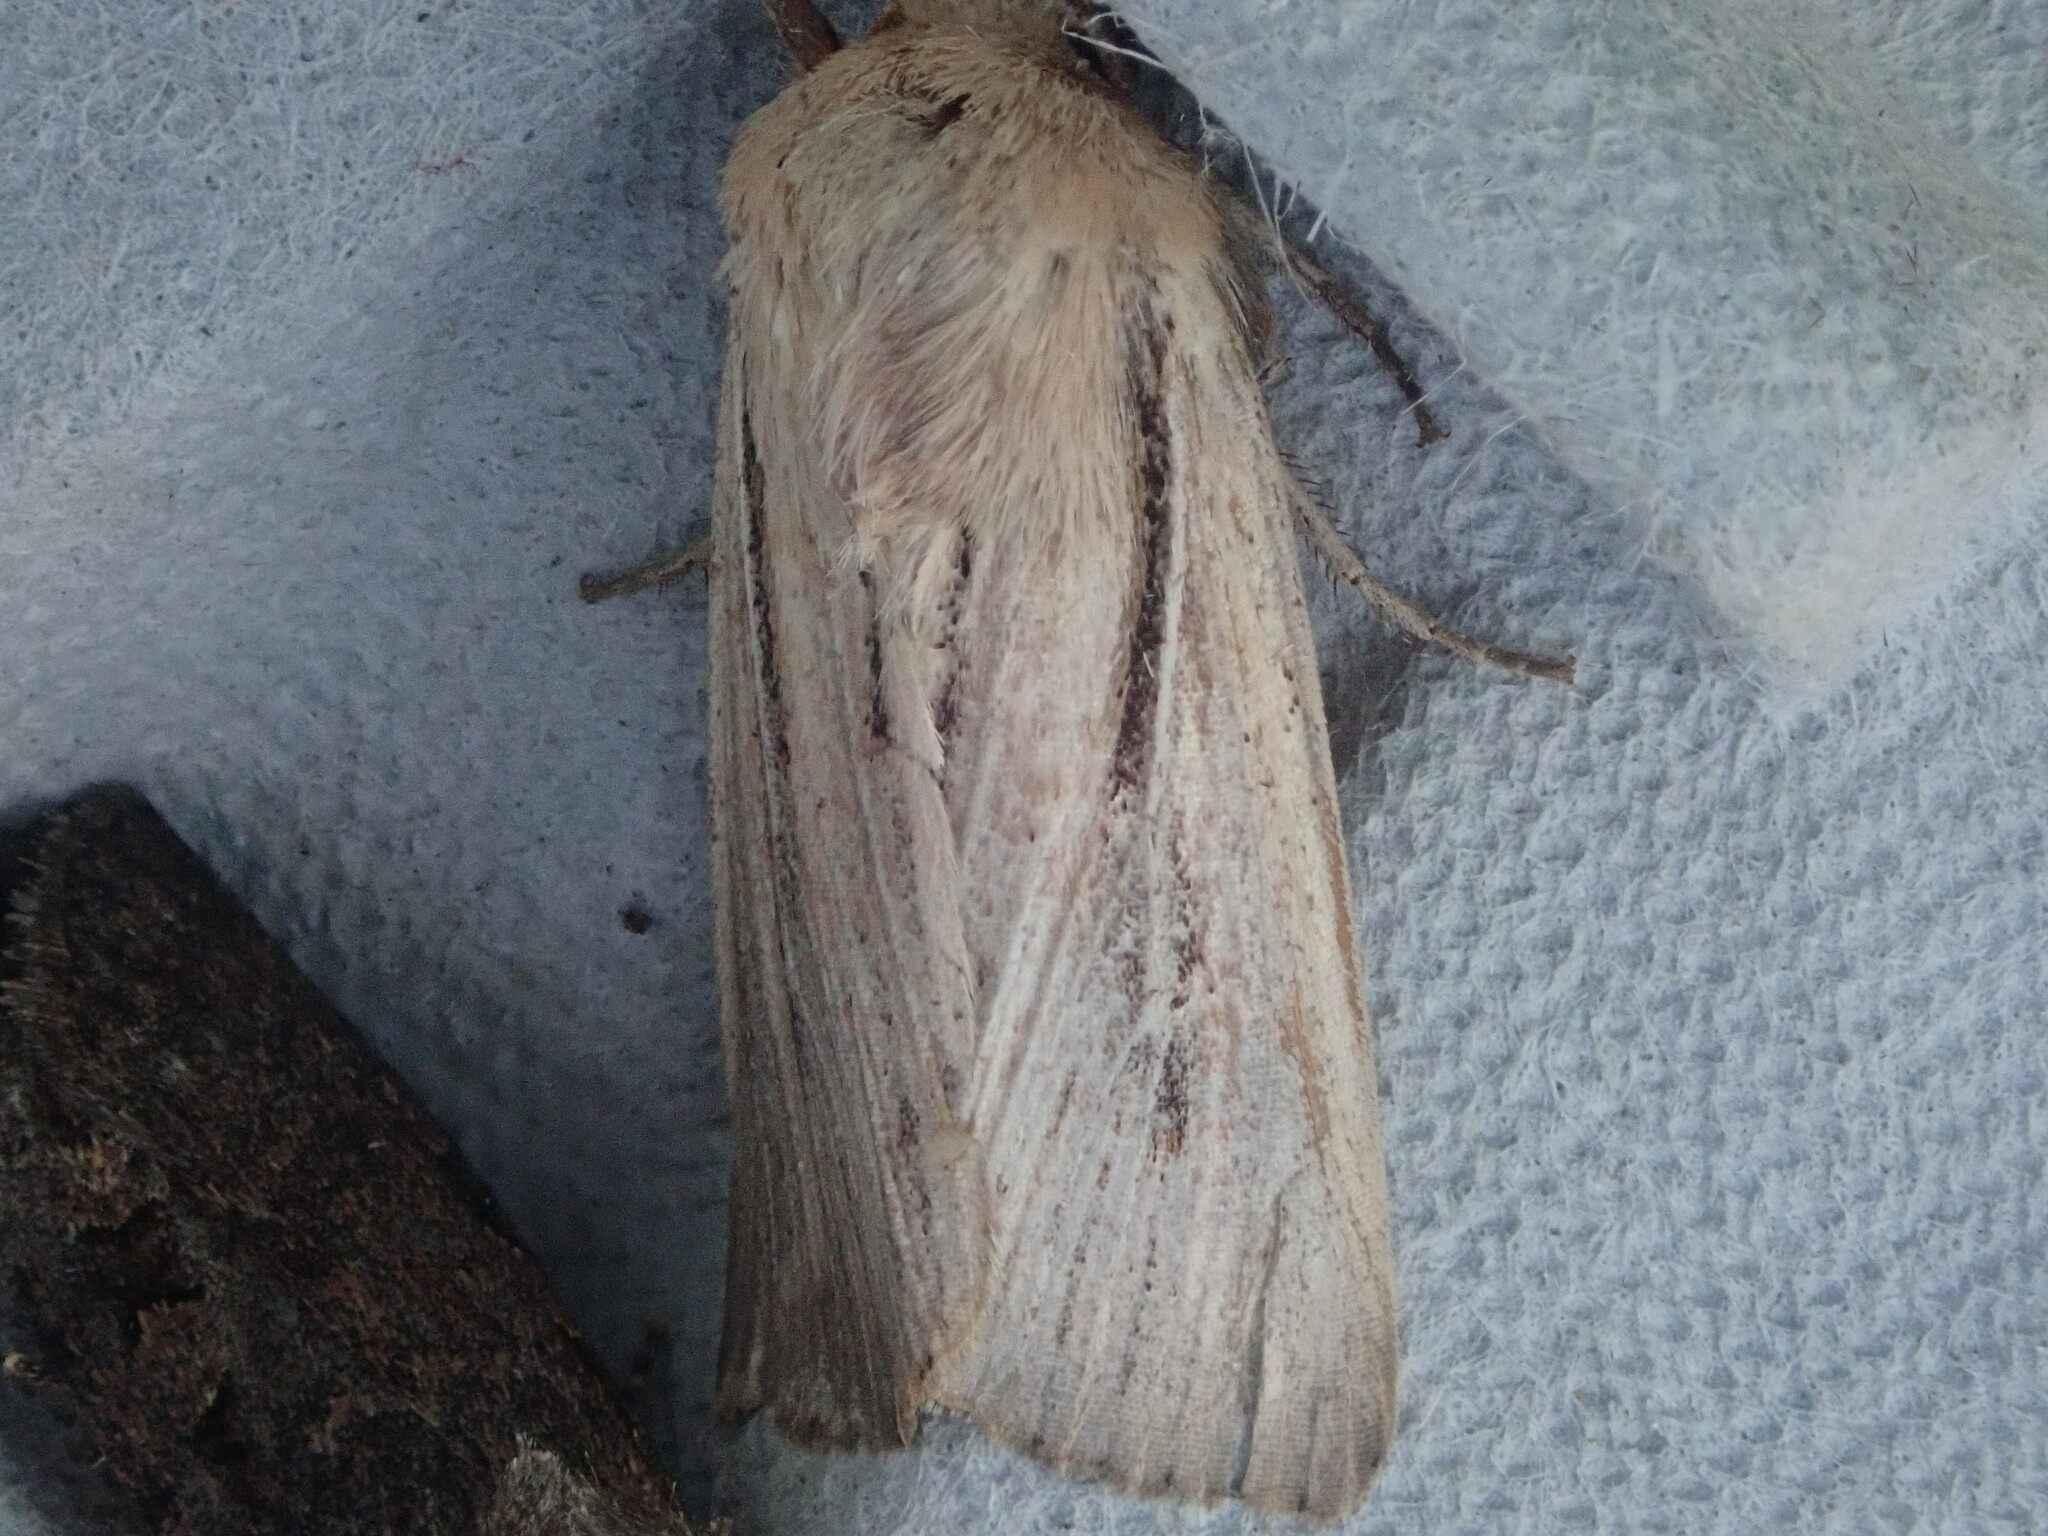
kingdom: Animalia
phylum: Arthropoda
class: Insecta
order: Lepidoptera
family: Noctuidae
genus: Leucania
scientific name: Leucania commoides
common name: Two-lined wainscot
